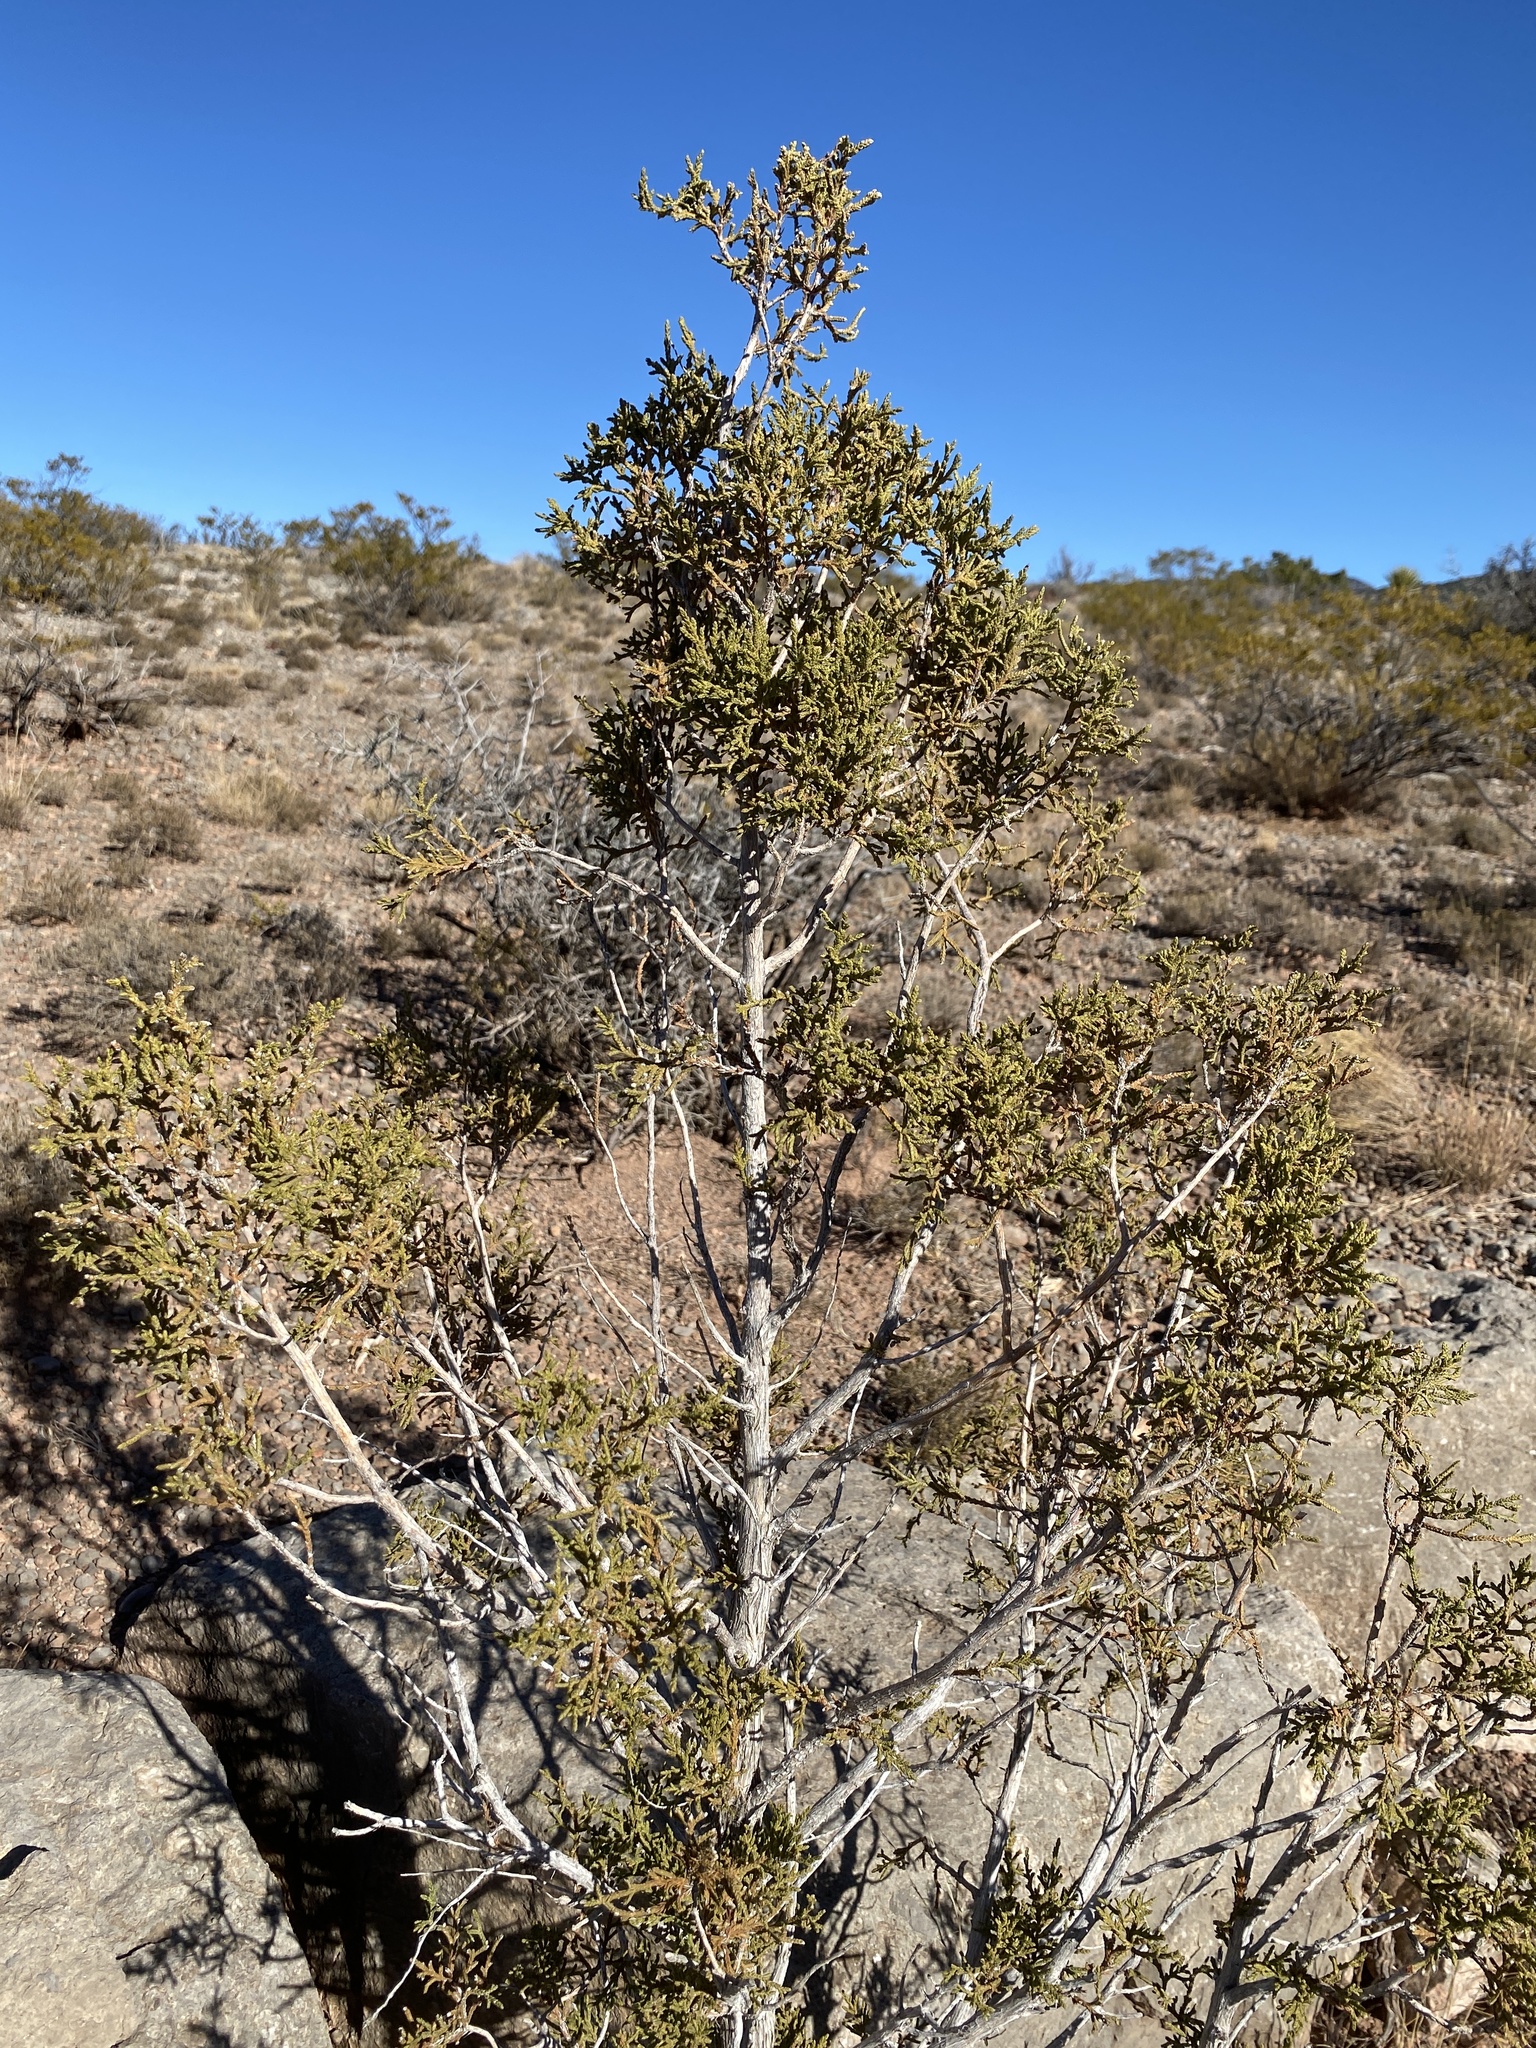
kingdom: Plantae
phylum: Tracheophyta
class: Pinopsida
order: Pinales
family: Cupressaceae
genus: Juniperus
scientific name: Juniperus monosperma
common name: One-seed juniper
